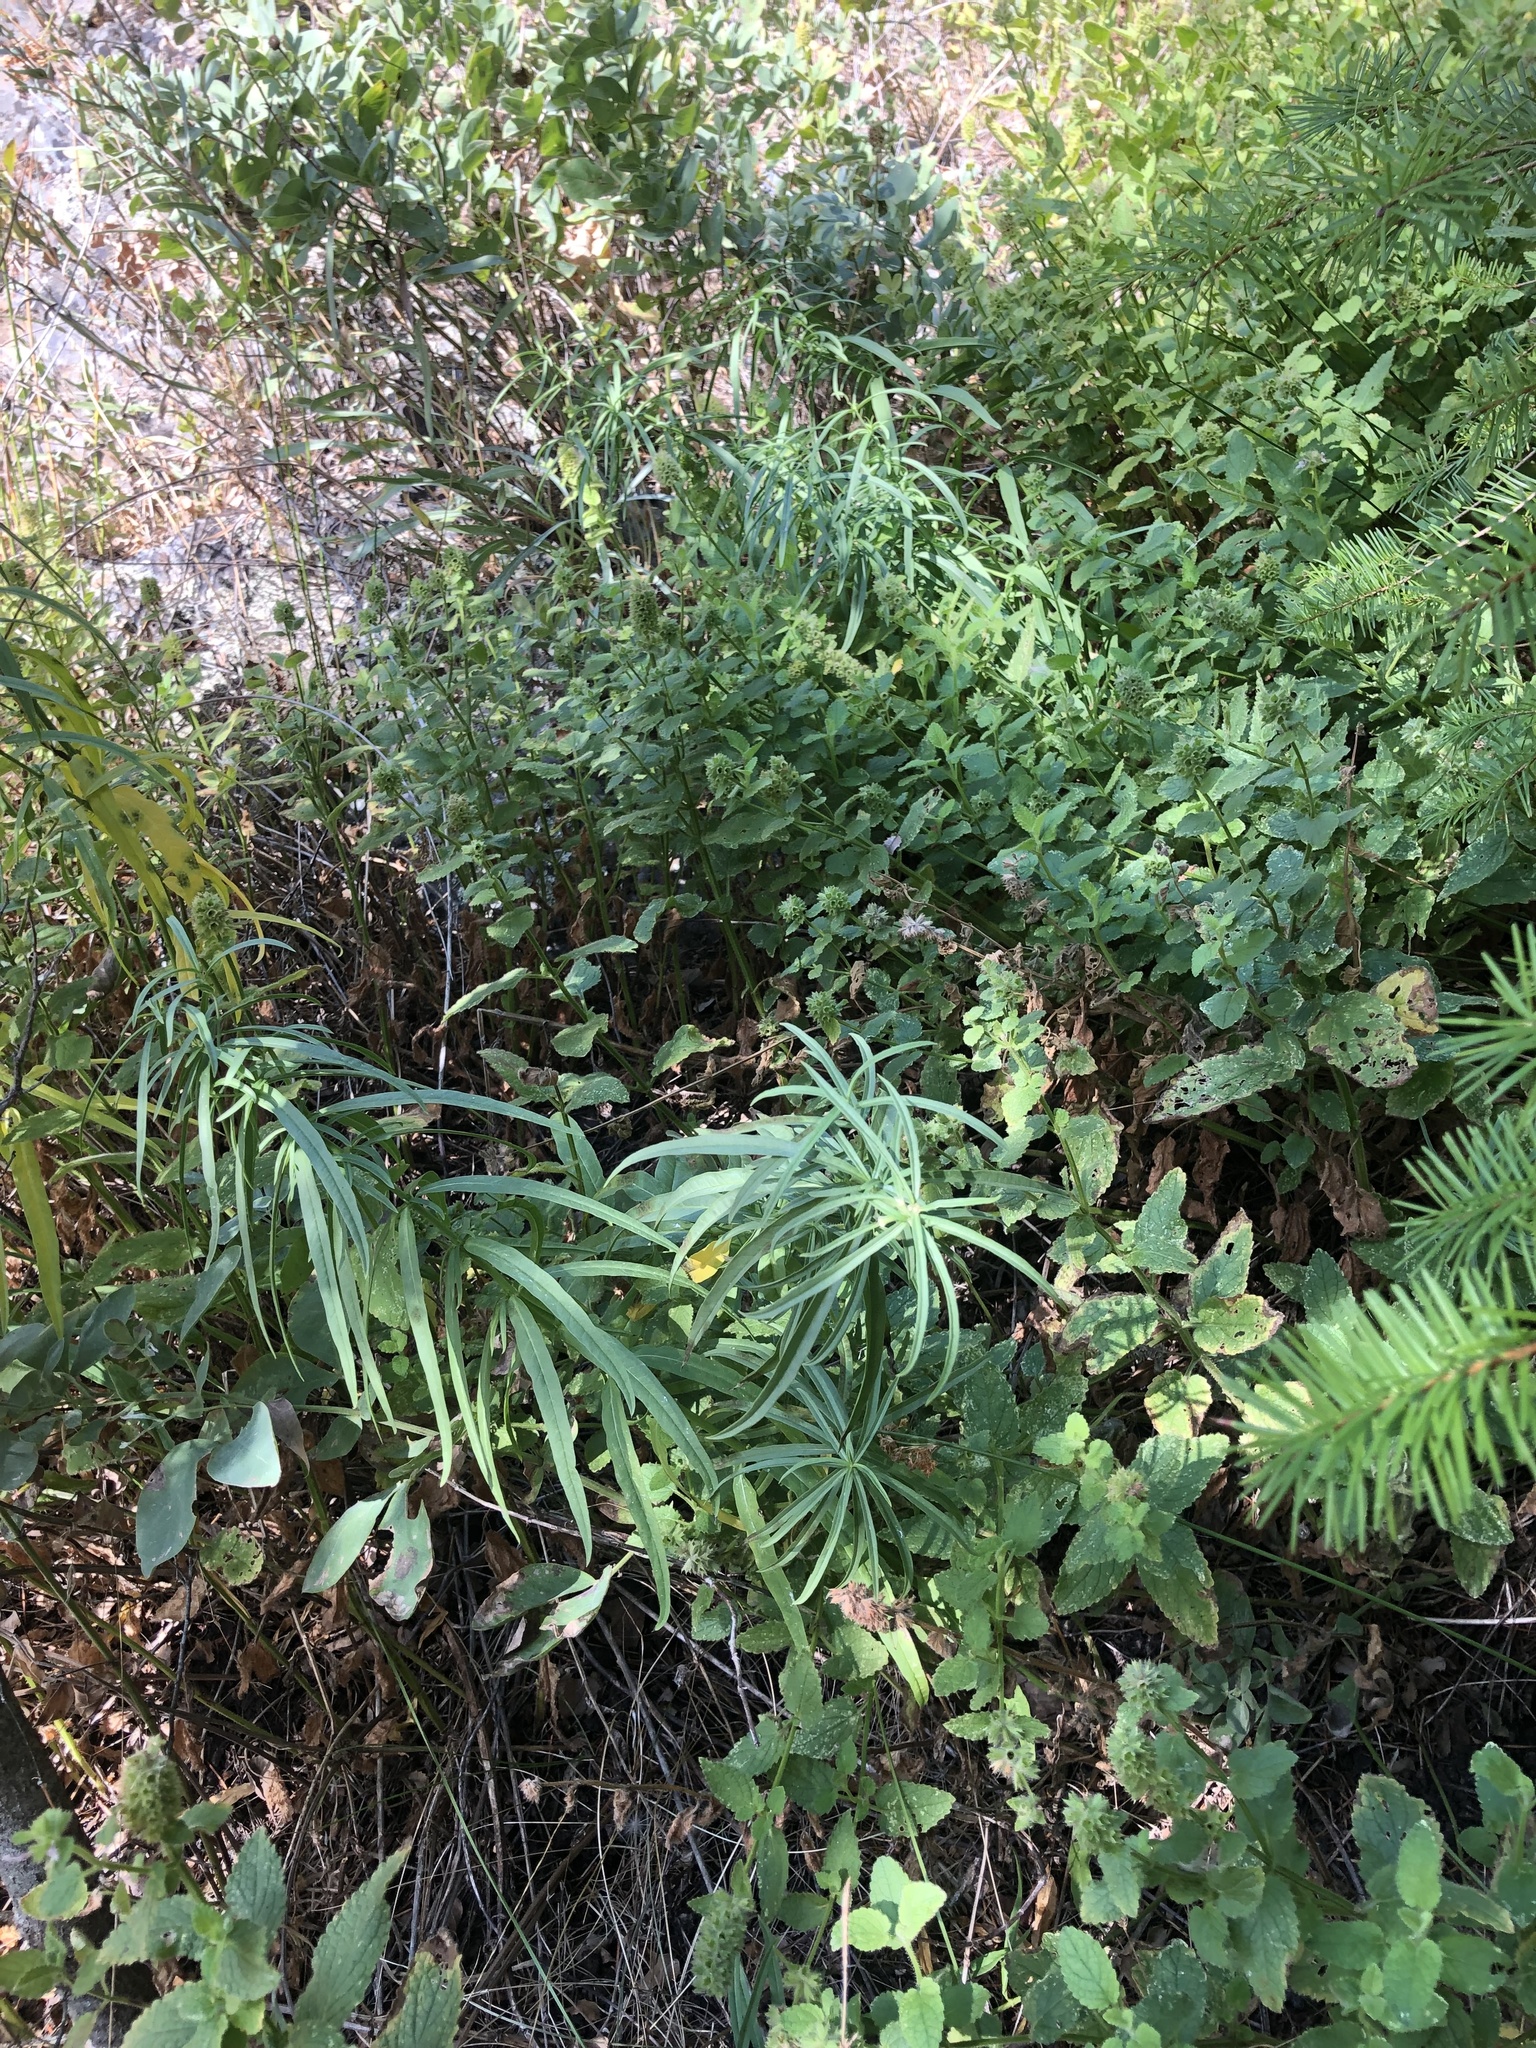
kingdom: Plantae
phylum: Tracheophyta
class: Magnoliopsida
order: Gentianales
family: Apocynaceae
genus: Asclepias
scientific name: Asclepias fascicularis
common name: Mexican milkweed
